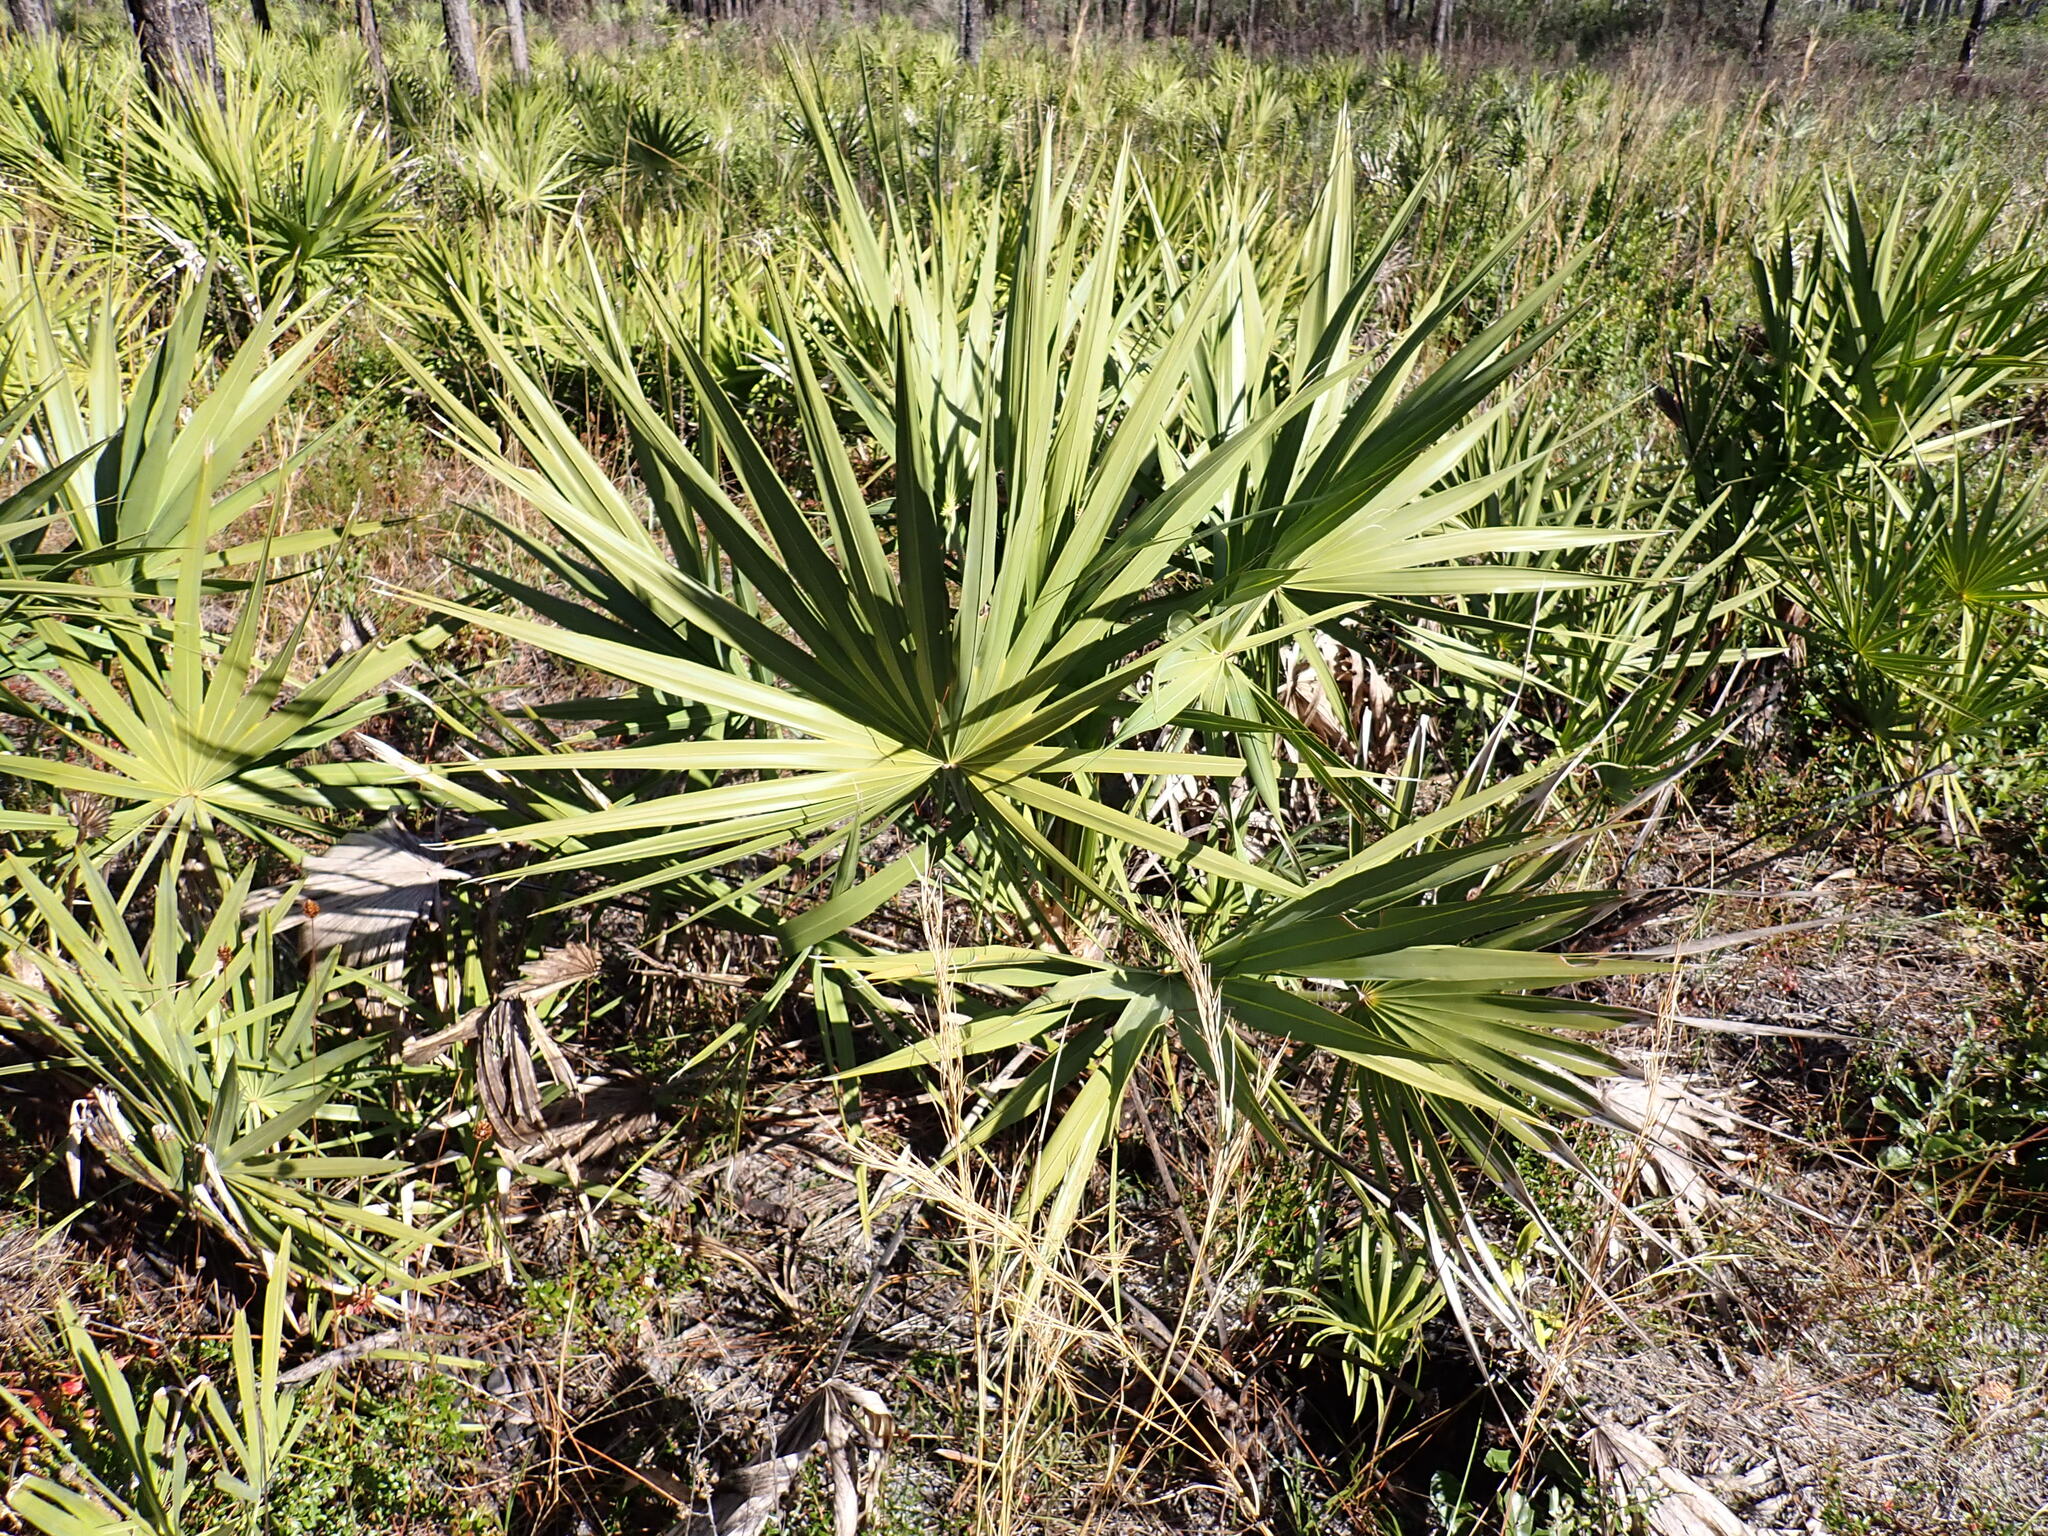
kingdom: Plantae
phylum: Tracheophyta
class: Liliopsida
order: Arecales
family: Arecaceae
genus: Serenoa
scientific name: Serenoa repens
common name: Saw-palmetto
